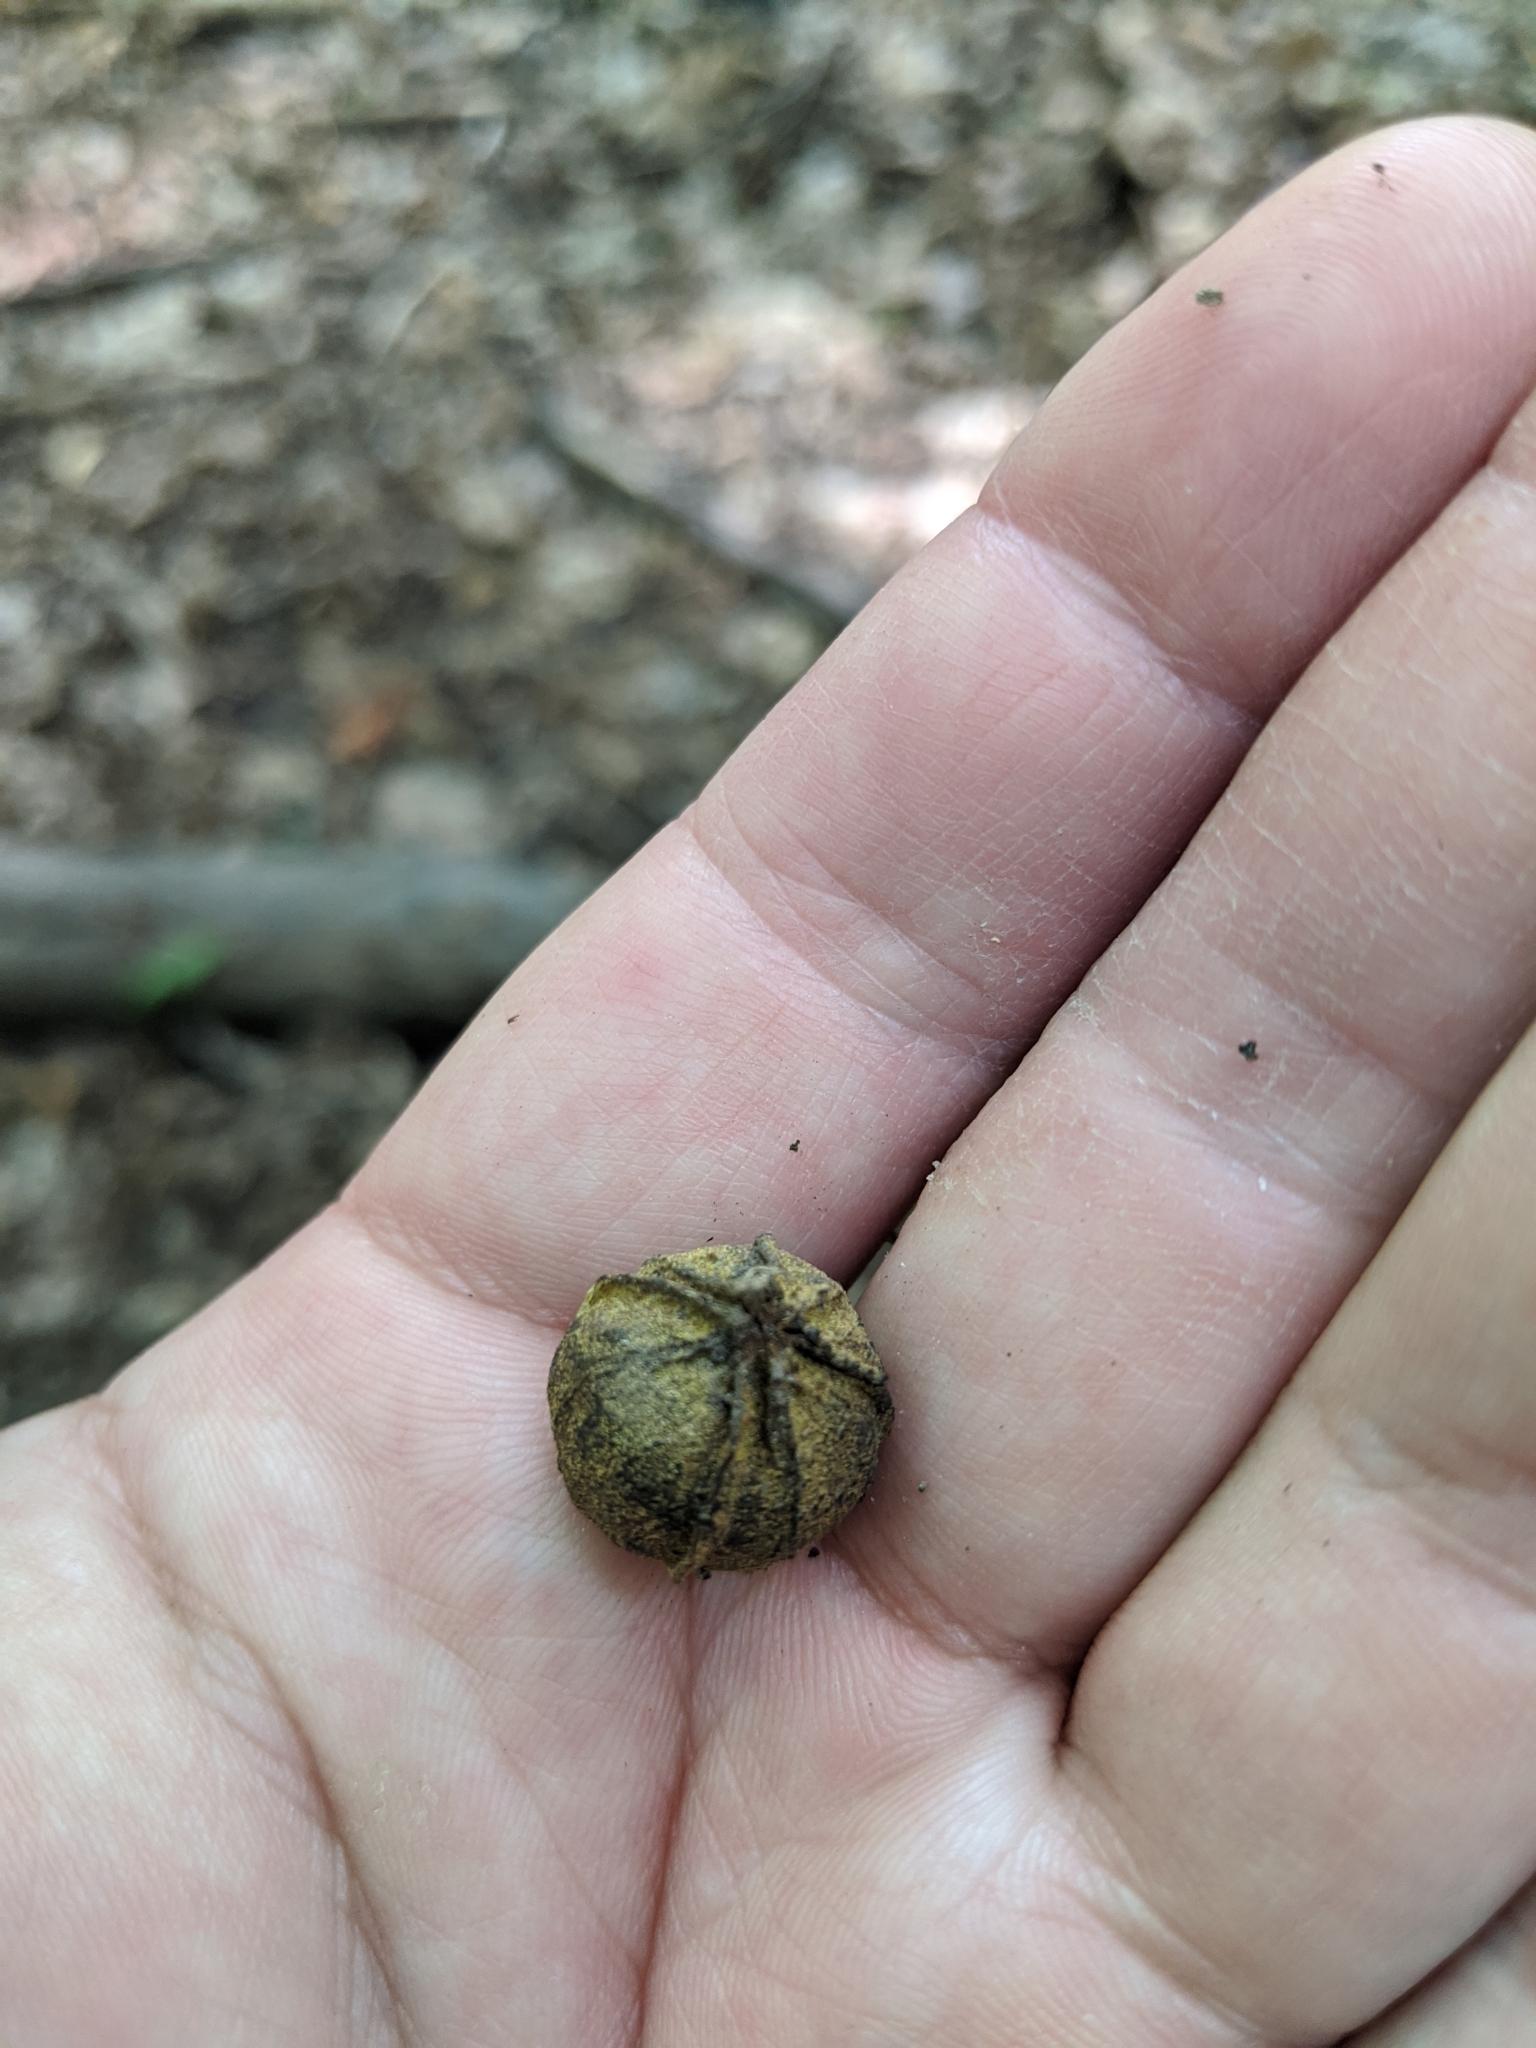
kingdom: Plantae
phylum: Tracheophyta
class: Magnoliopsida
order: Fagales
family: Juglandaceae
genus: Carya
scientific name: Carya cordiformis
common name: Bitternut hickory
